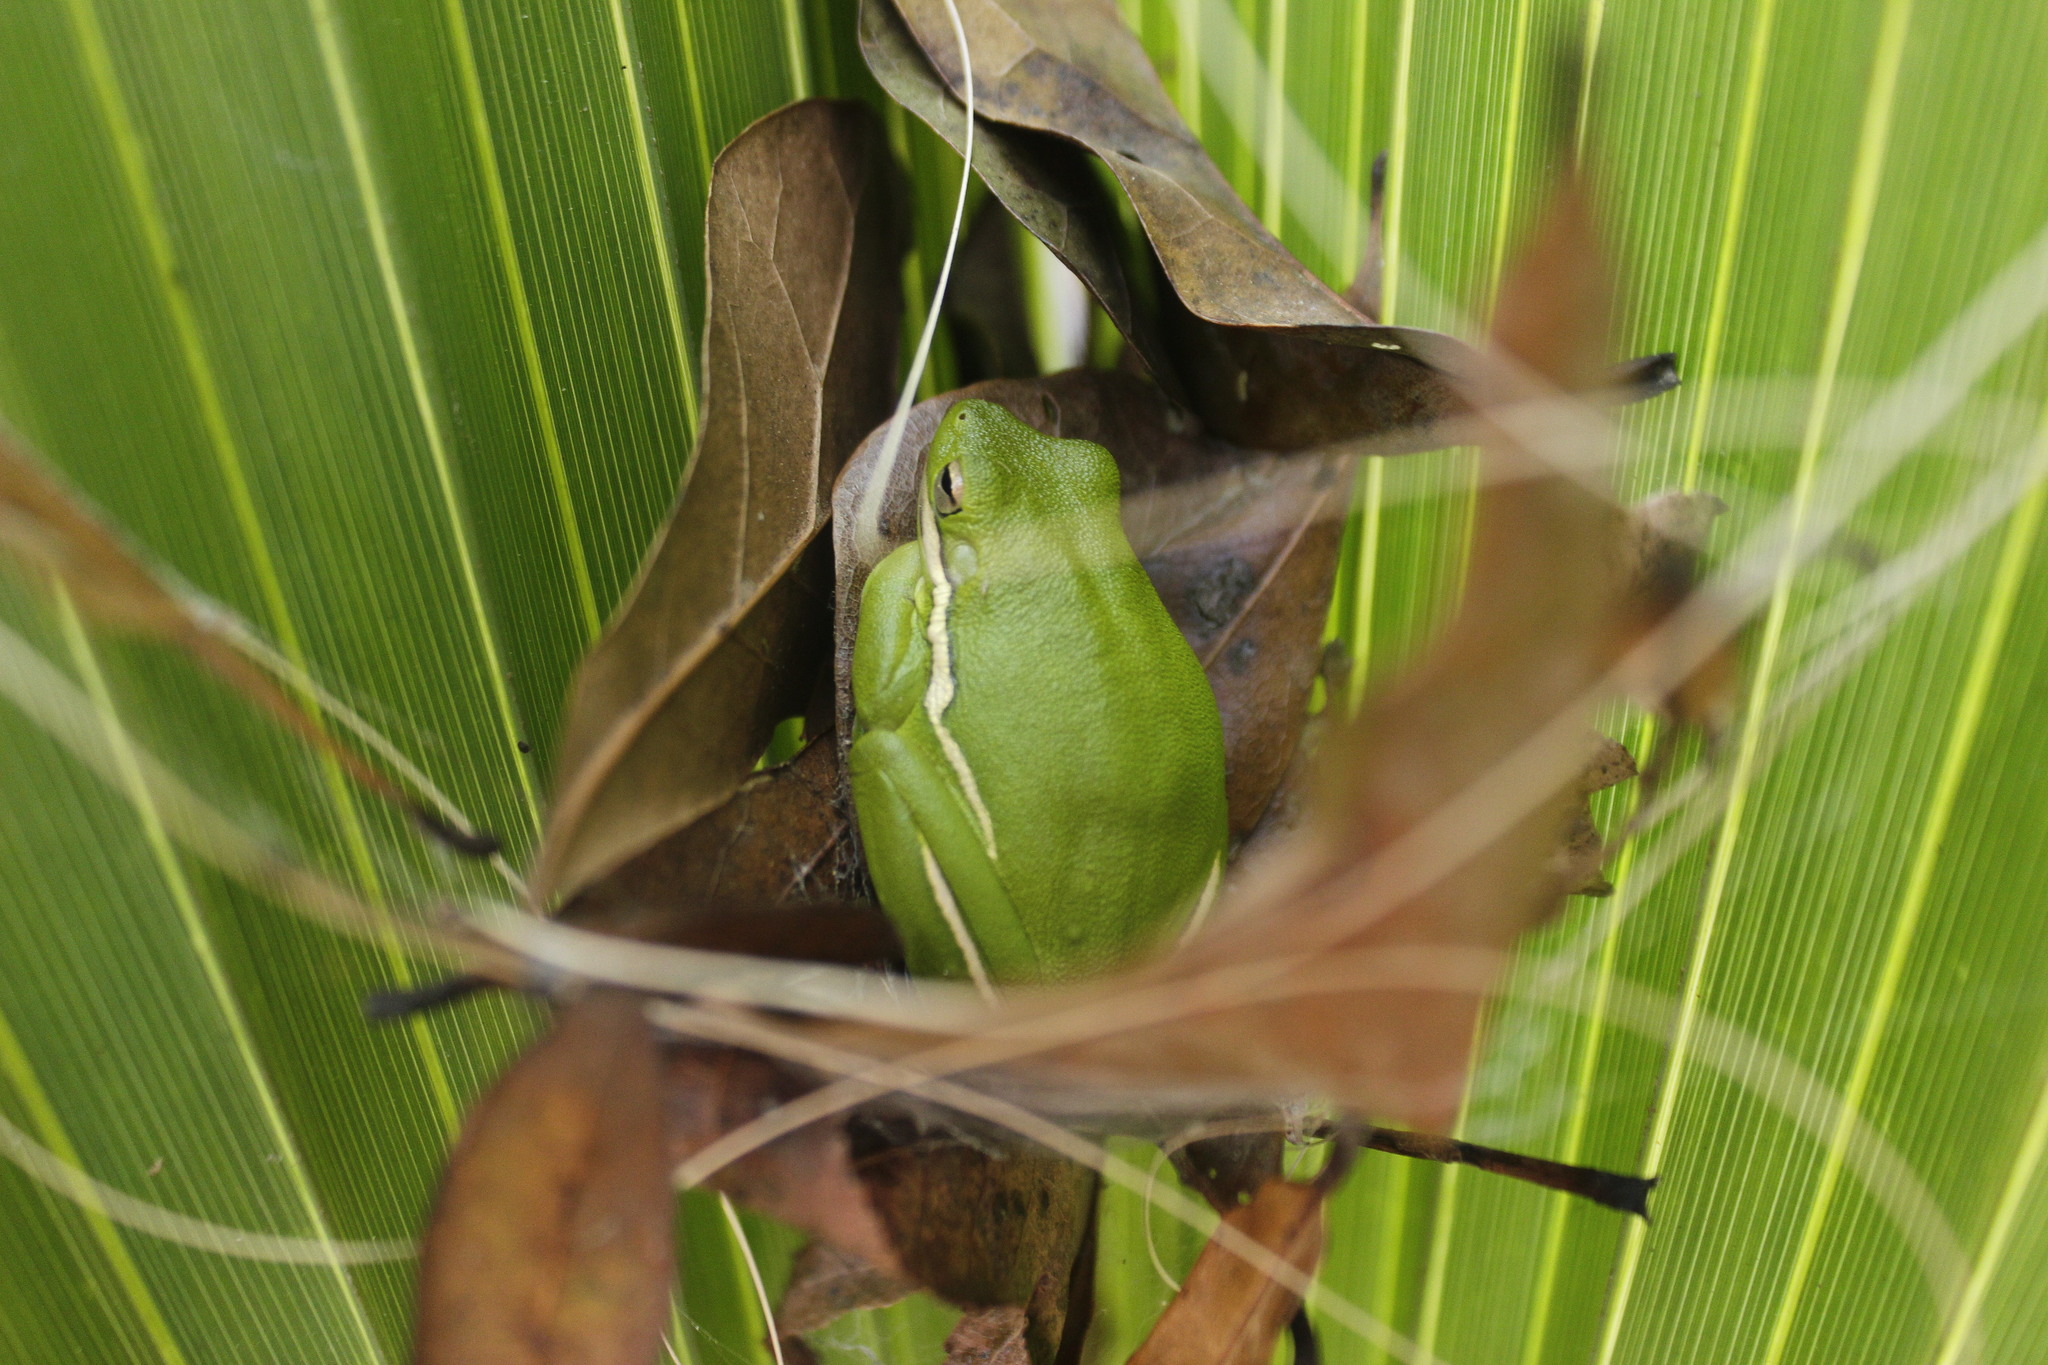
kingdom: Animalia
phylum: Chordata
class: Amphibia
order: Anura
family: Hylidae
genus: Dryophytes
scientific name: Dryophytes cinereus
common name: Green treefrog
